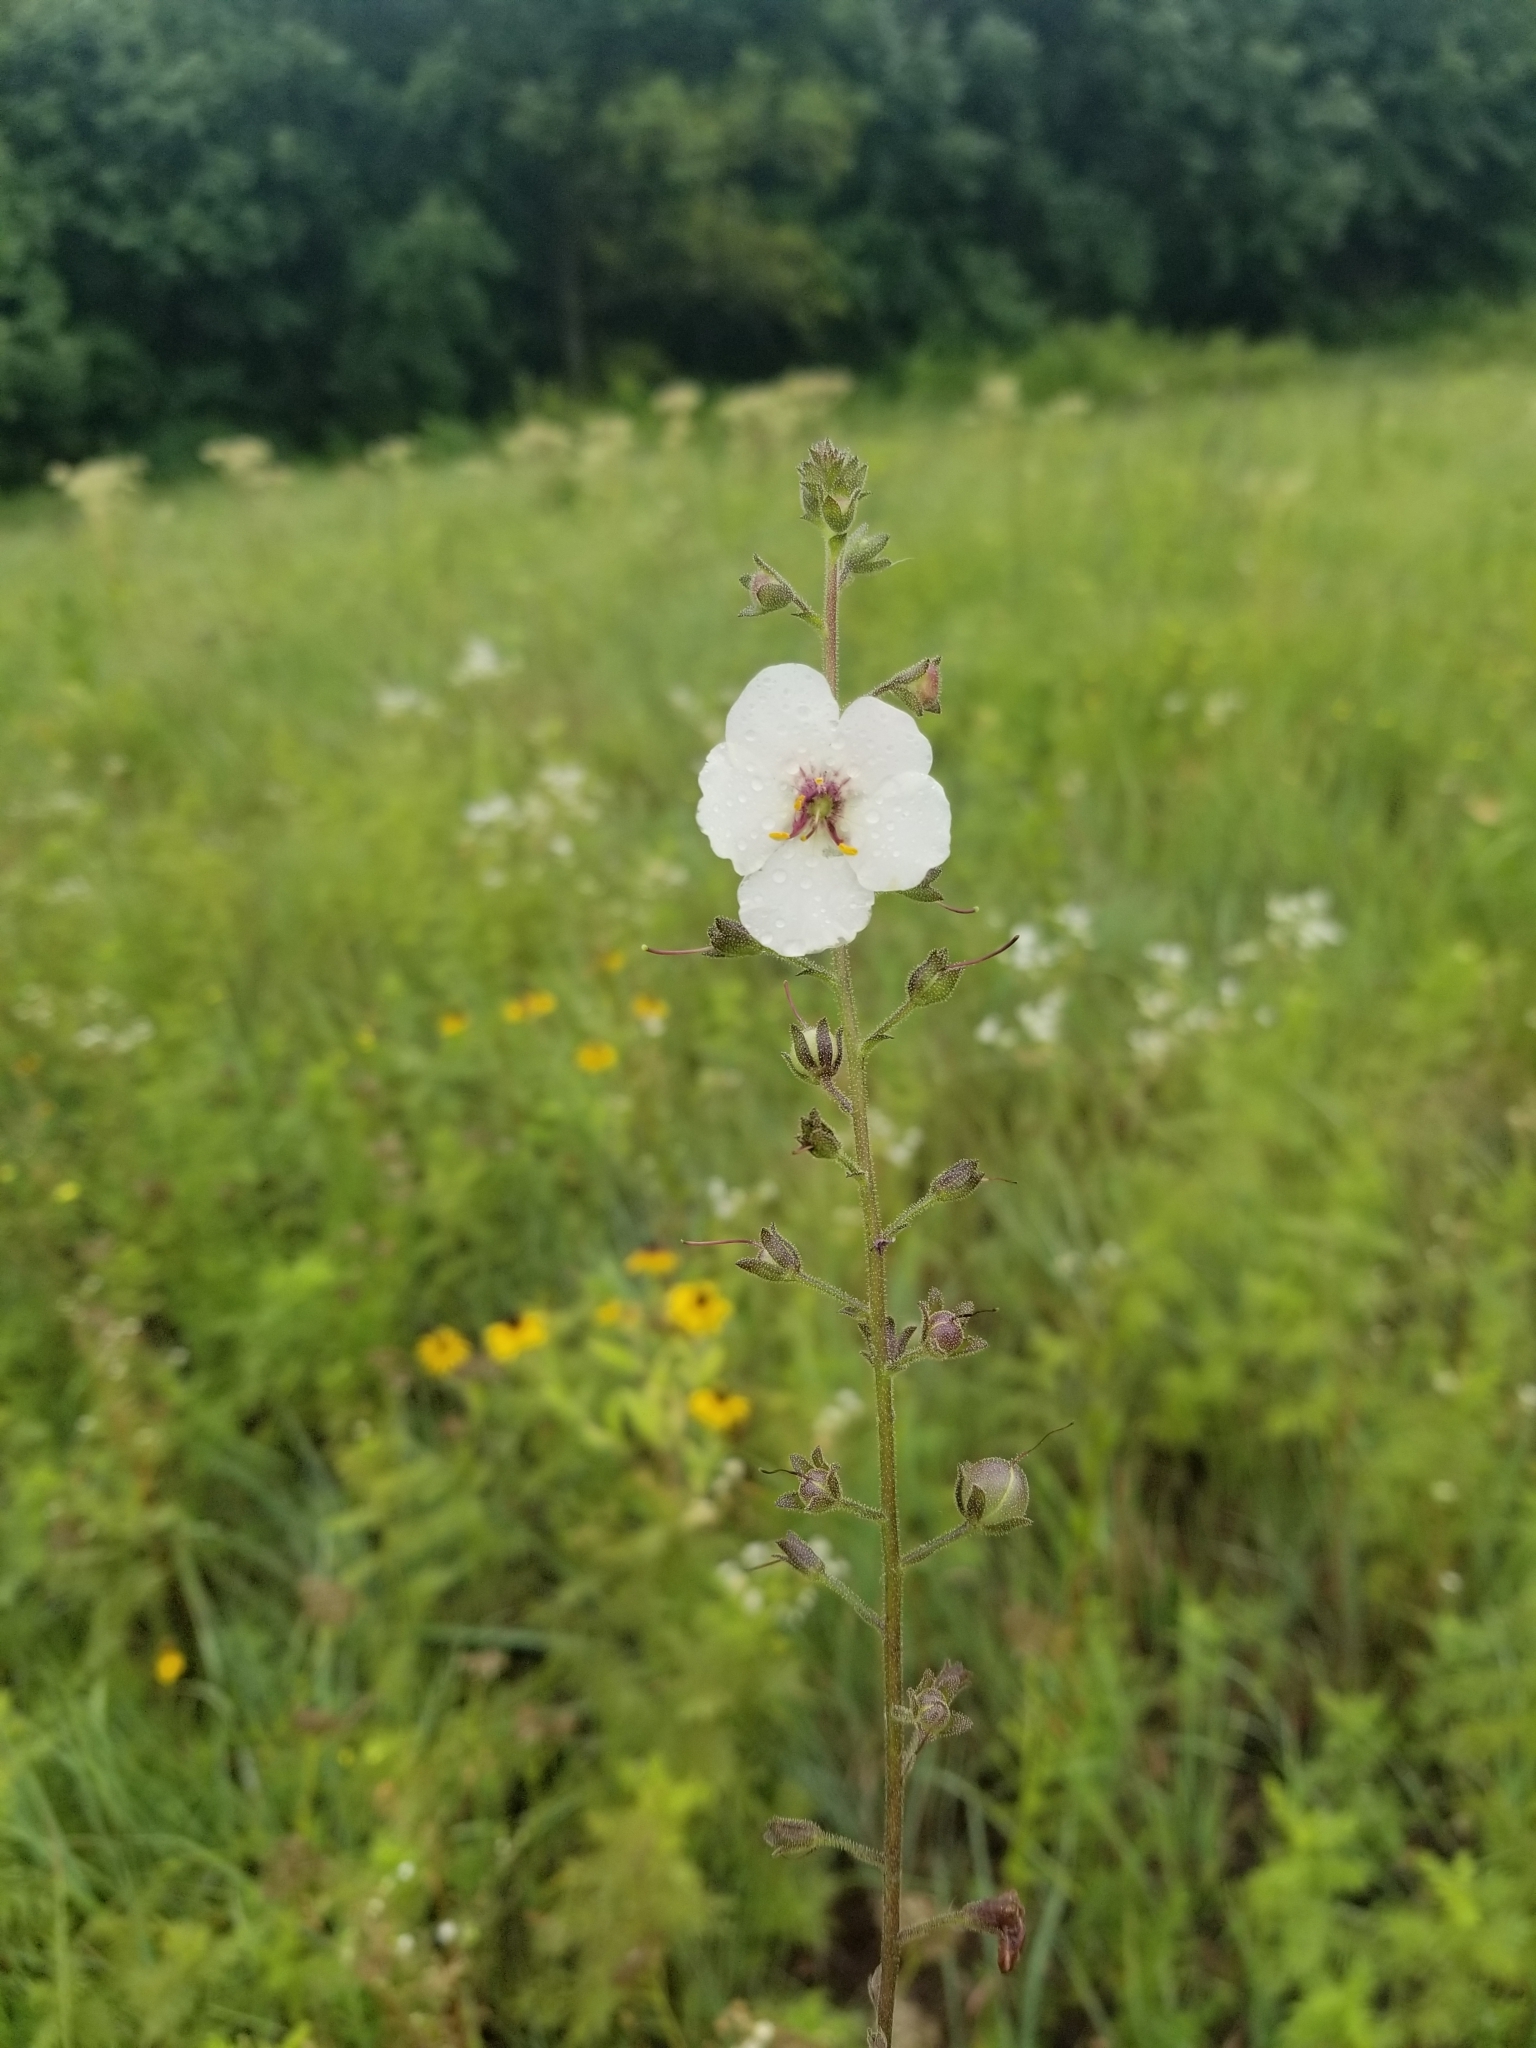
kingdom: Plantae
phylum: Tracheophyta
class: Magnoliopsida
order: Lamiales
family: Scrophulariaceae
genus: Verbascum
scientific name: Verbascum blattaria
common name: Moth mullein
